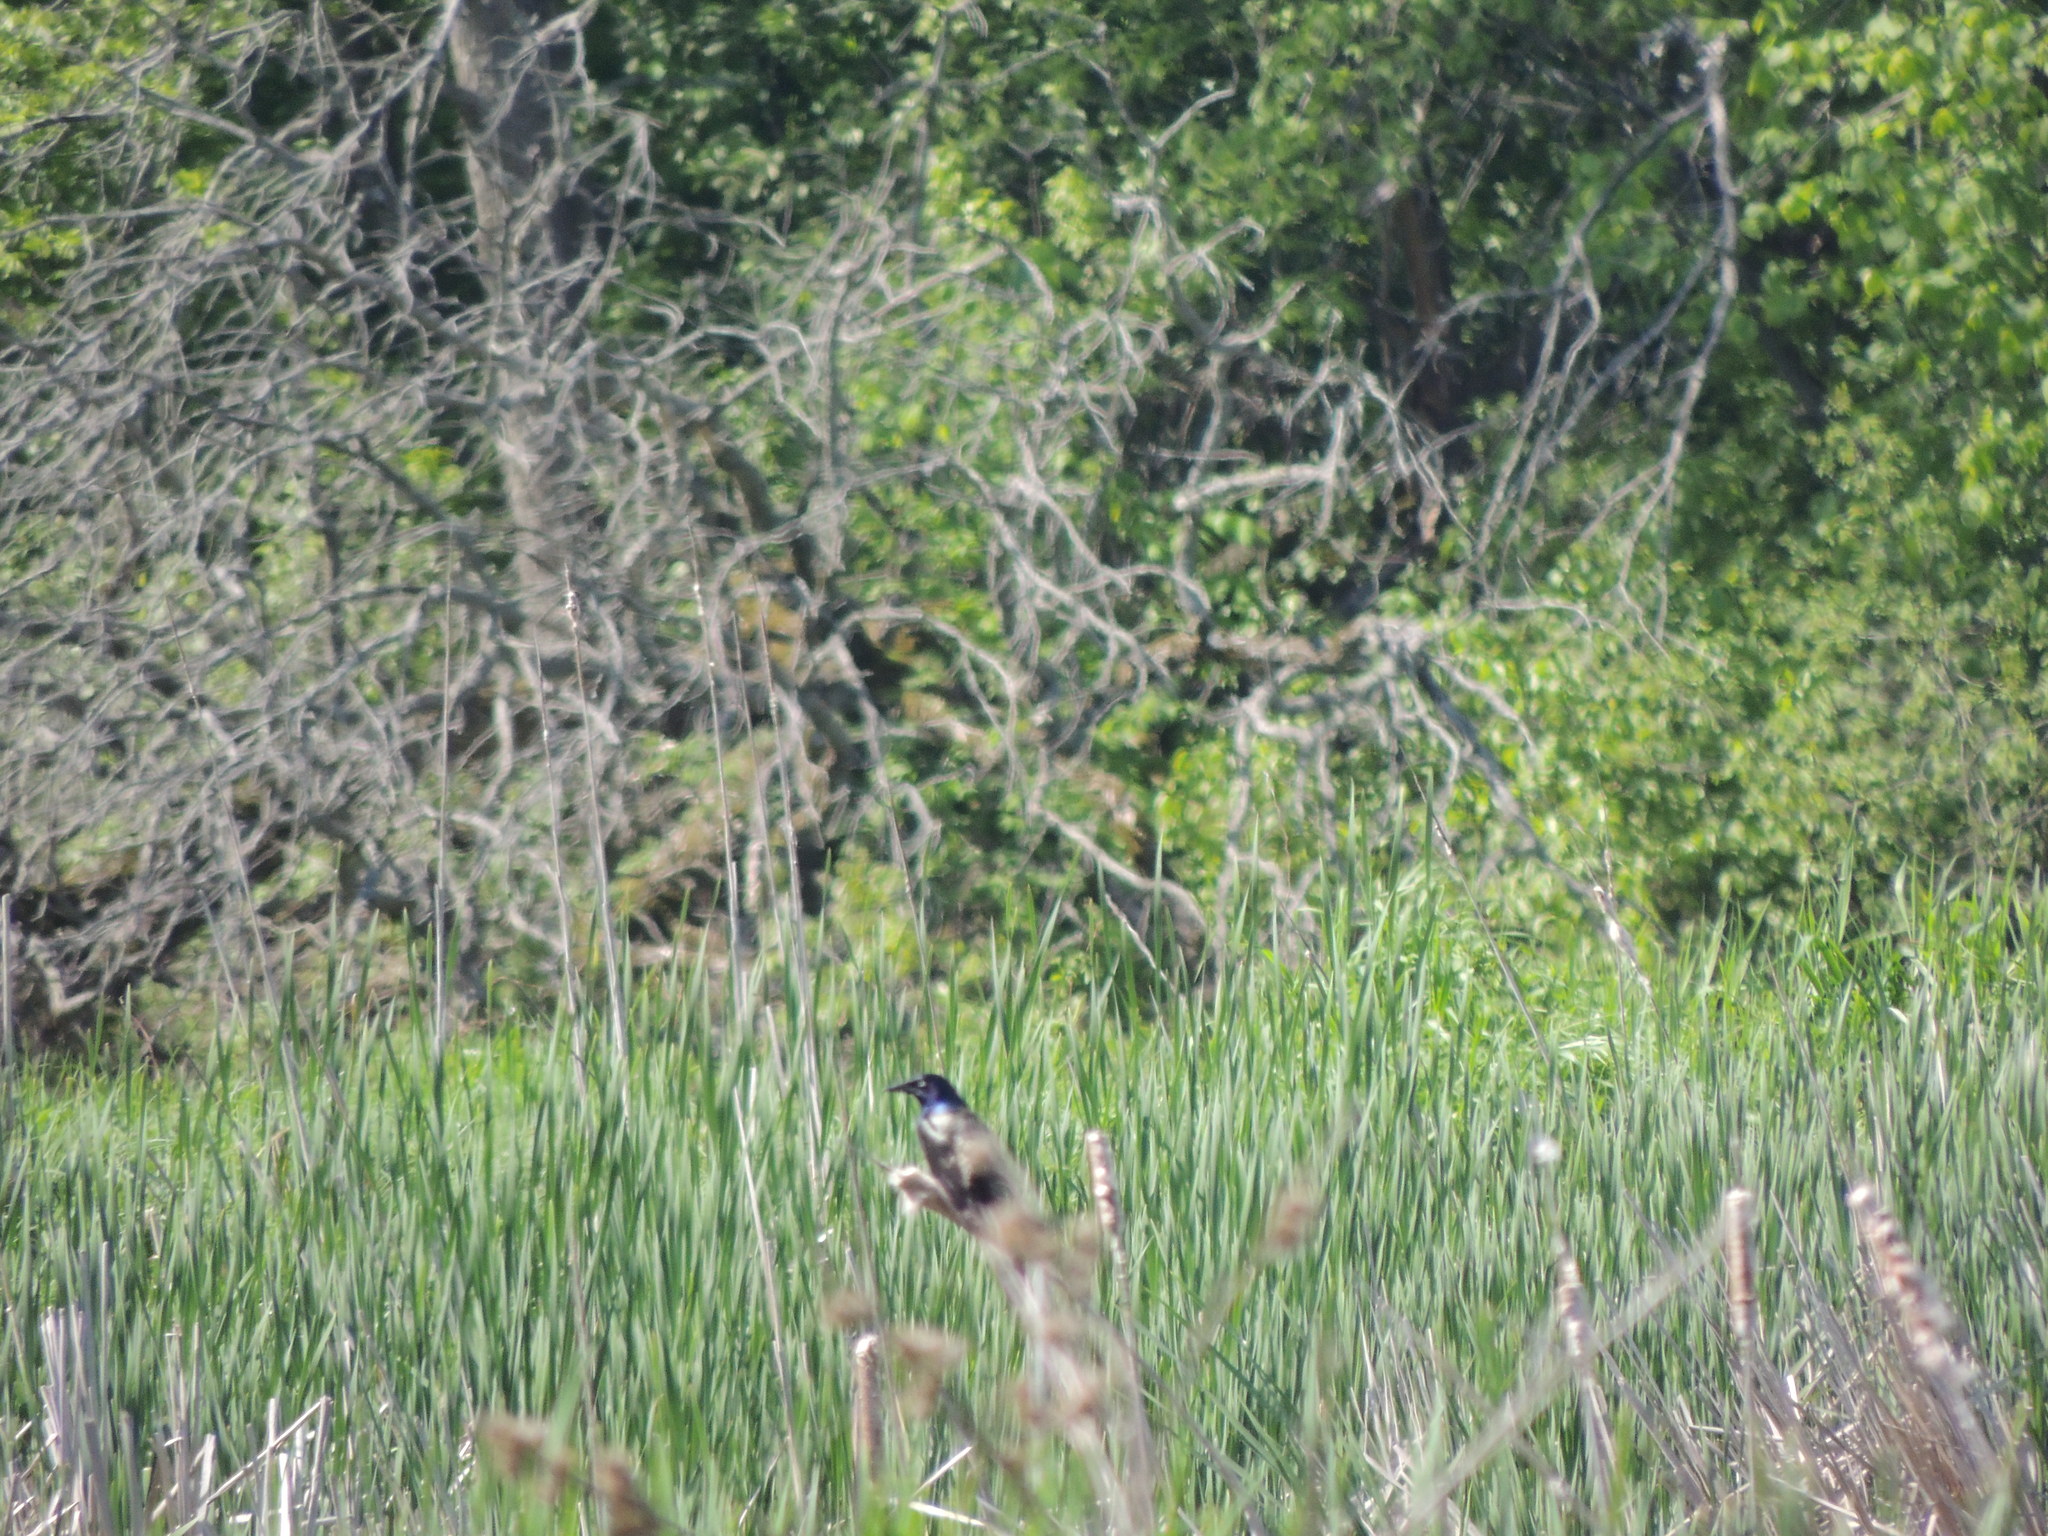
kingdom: Animalia
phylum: Chordata
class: Aves
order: Passeriformes
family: Icteridae
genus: Quiscalus
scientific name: Quiscalus quiscula
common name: Common grackle
